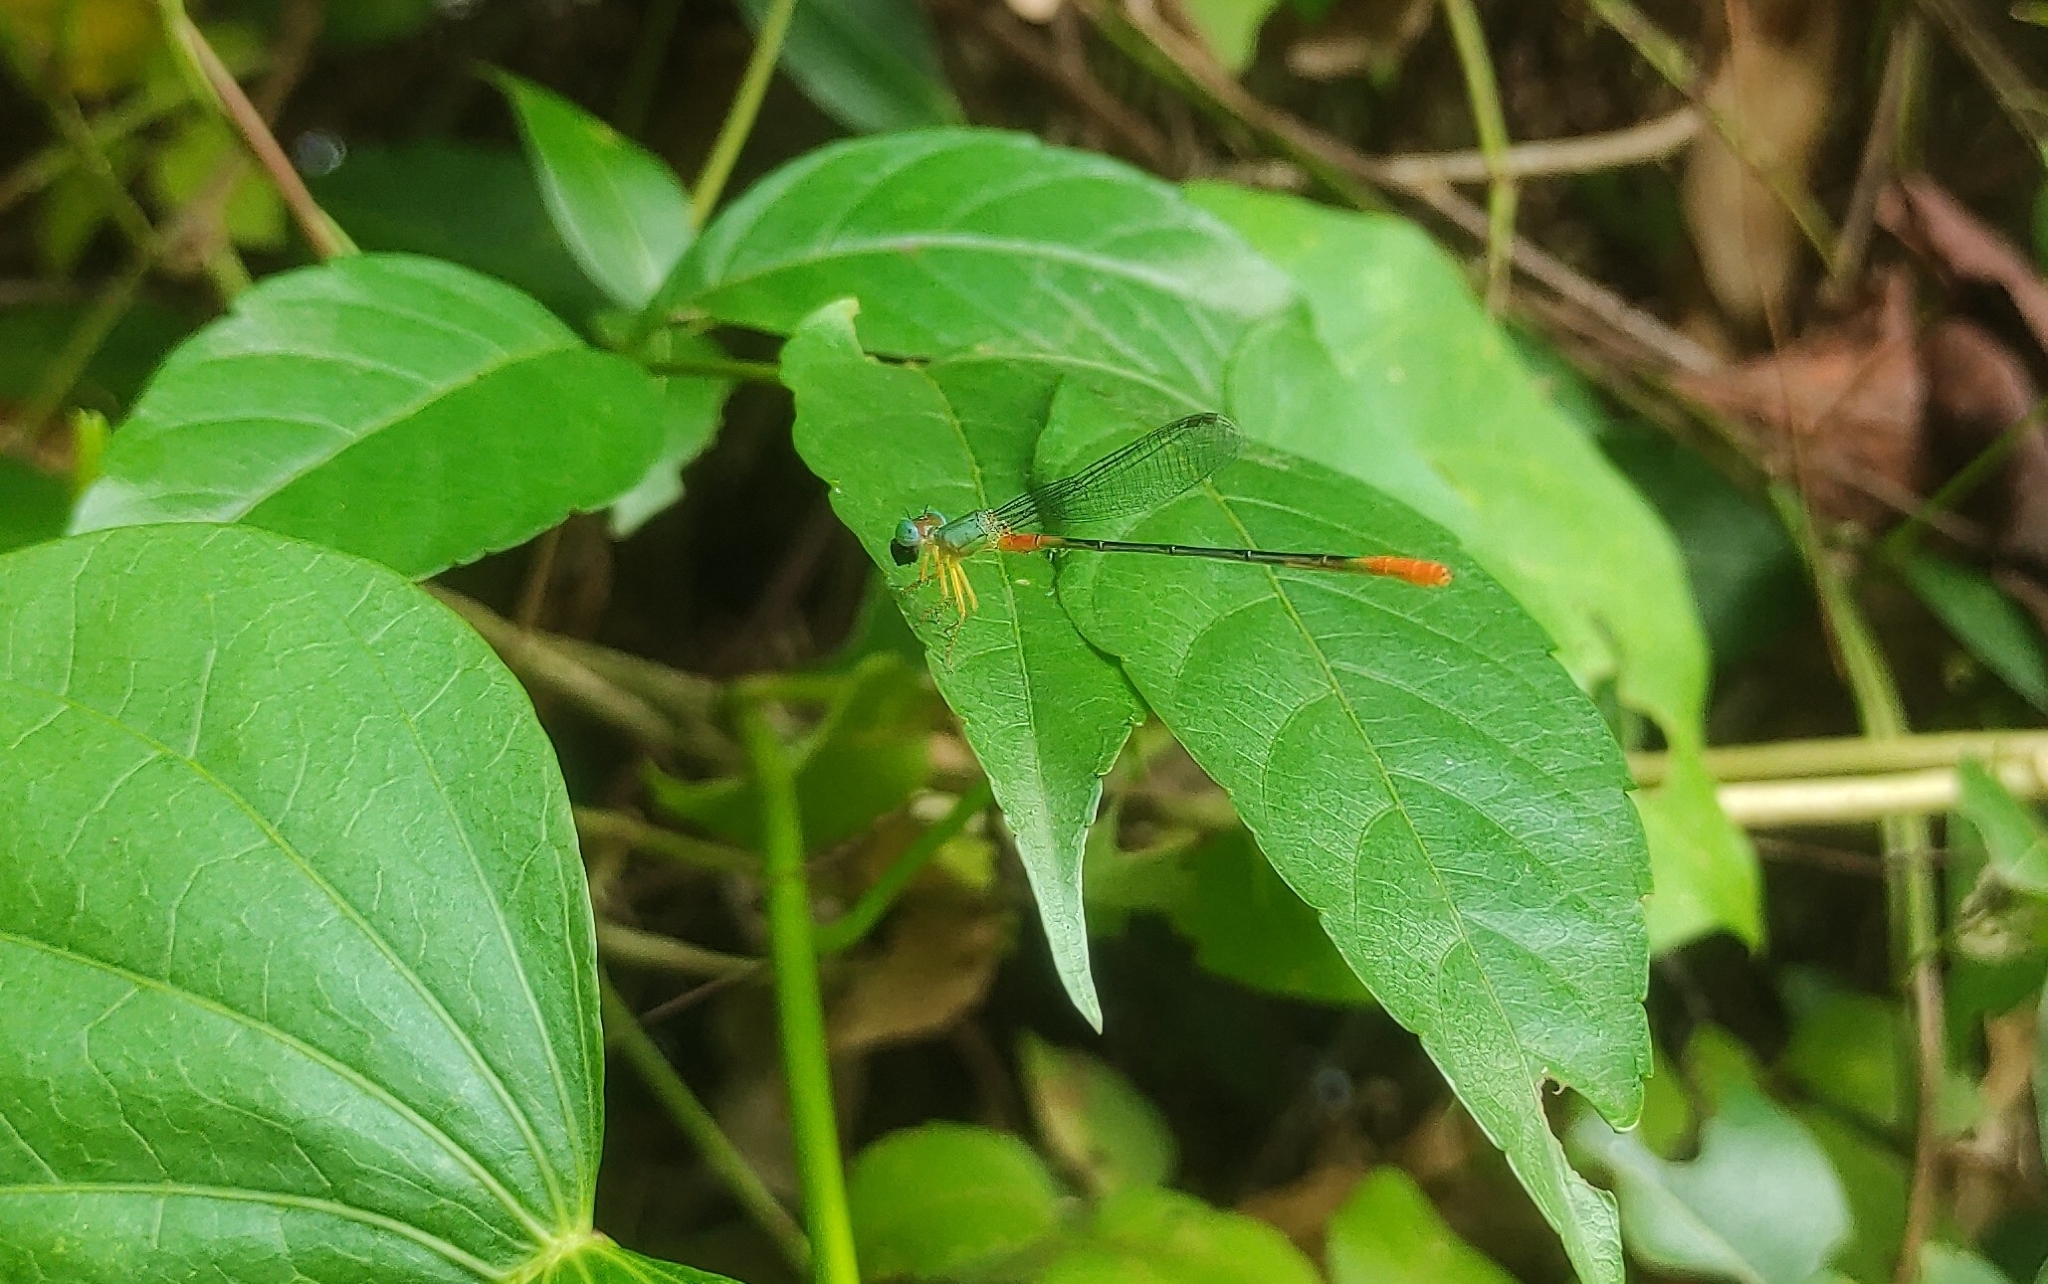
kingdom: Animalia
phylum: Arthropoda
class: Insecta
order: Odonata
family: Coenagrionidae
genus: Ceriagrion
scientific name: Ceriagrion cerinorubellum
